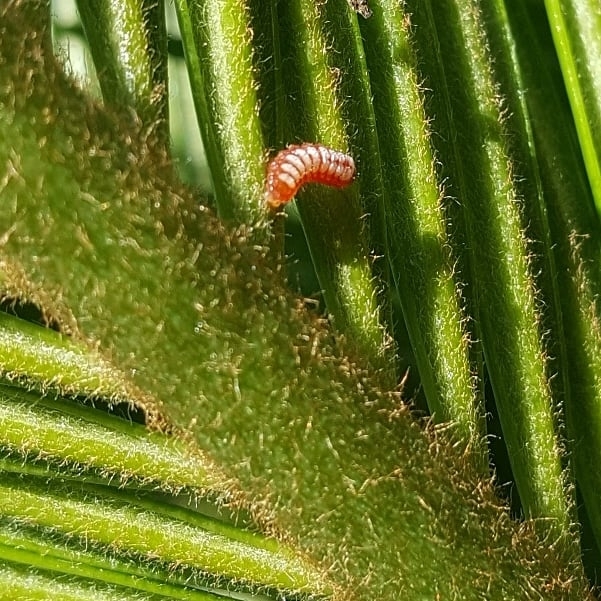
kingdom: Animalia
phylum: Arthropoda
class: Insecta
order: Lepidoptera
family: Lycaenidae
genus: Eumaeus
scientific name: Eumaeus childrenae
